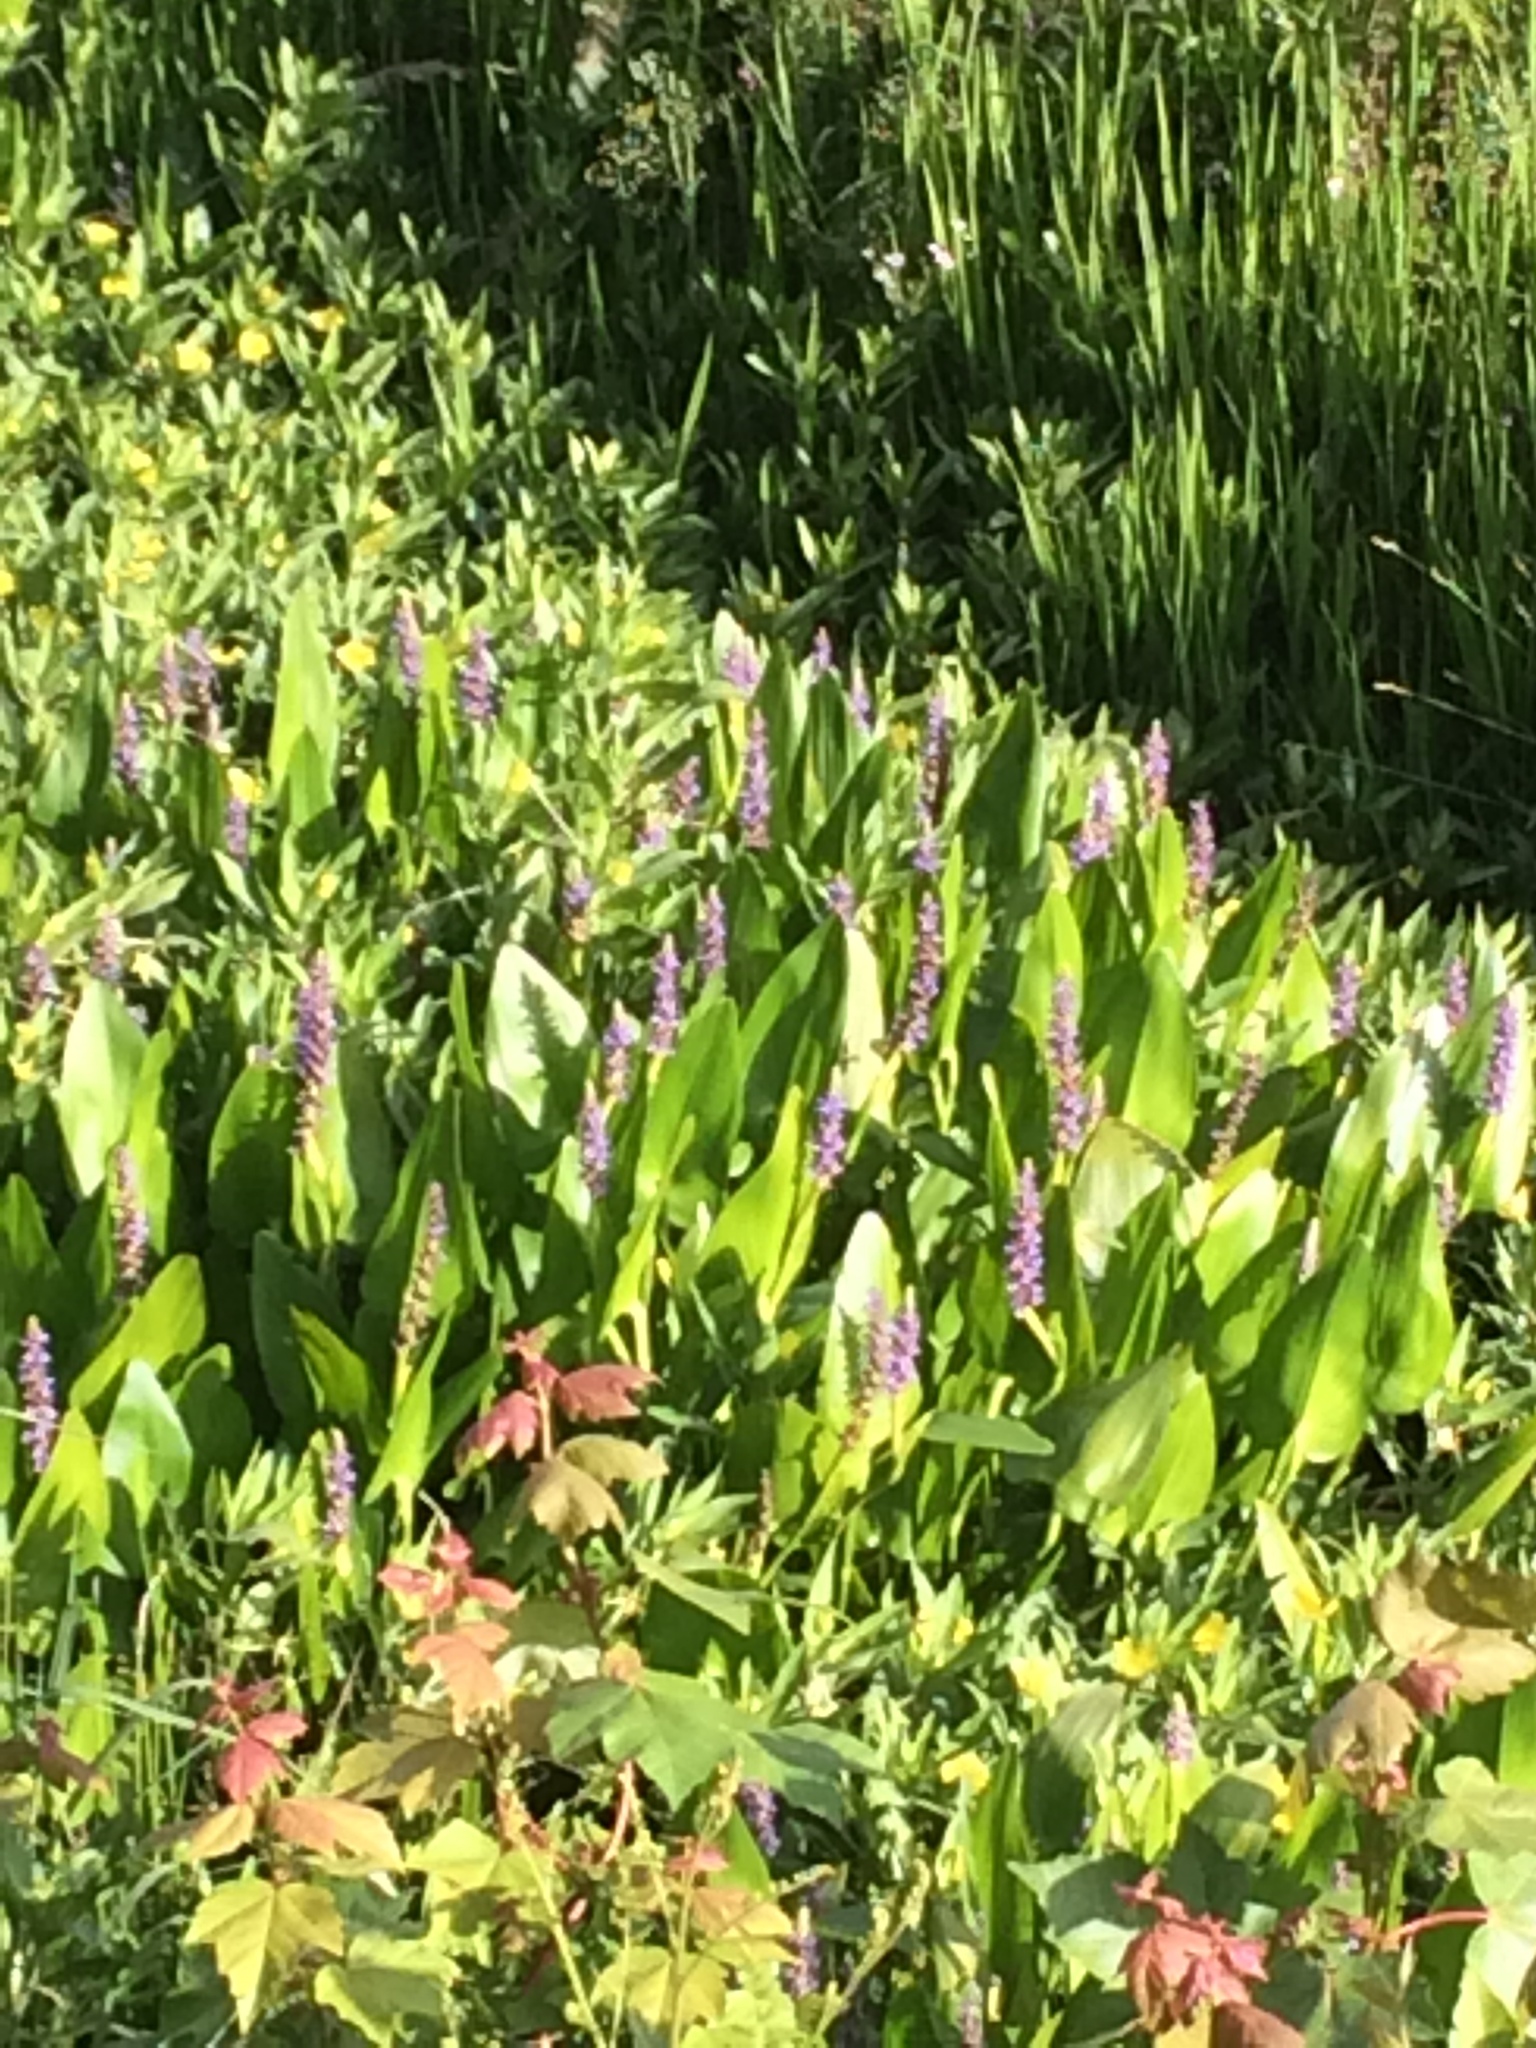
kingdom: Plantae
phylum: Tracheophyta
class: Liliopsida
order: Commelinales
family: Pontederiaceae
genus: Pontederia
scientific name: Pontederia cordata
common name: Pickerelweed
